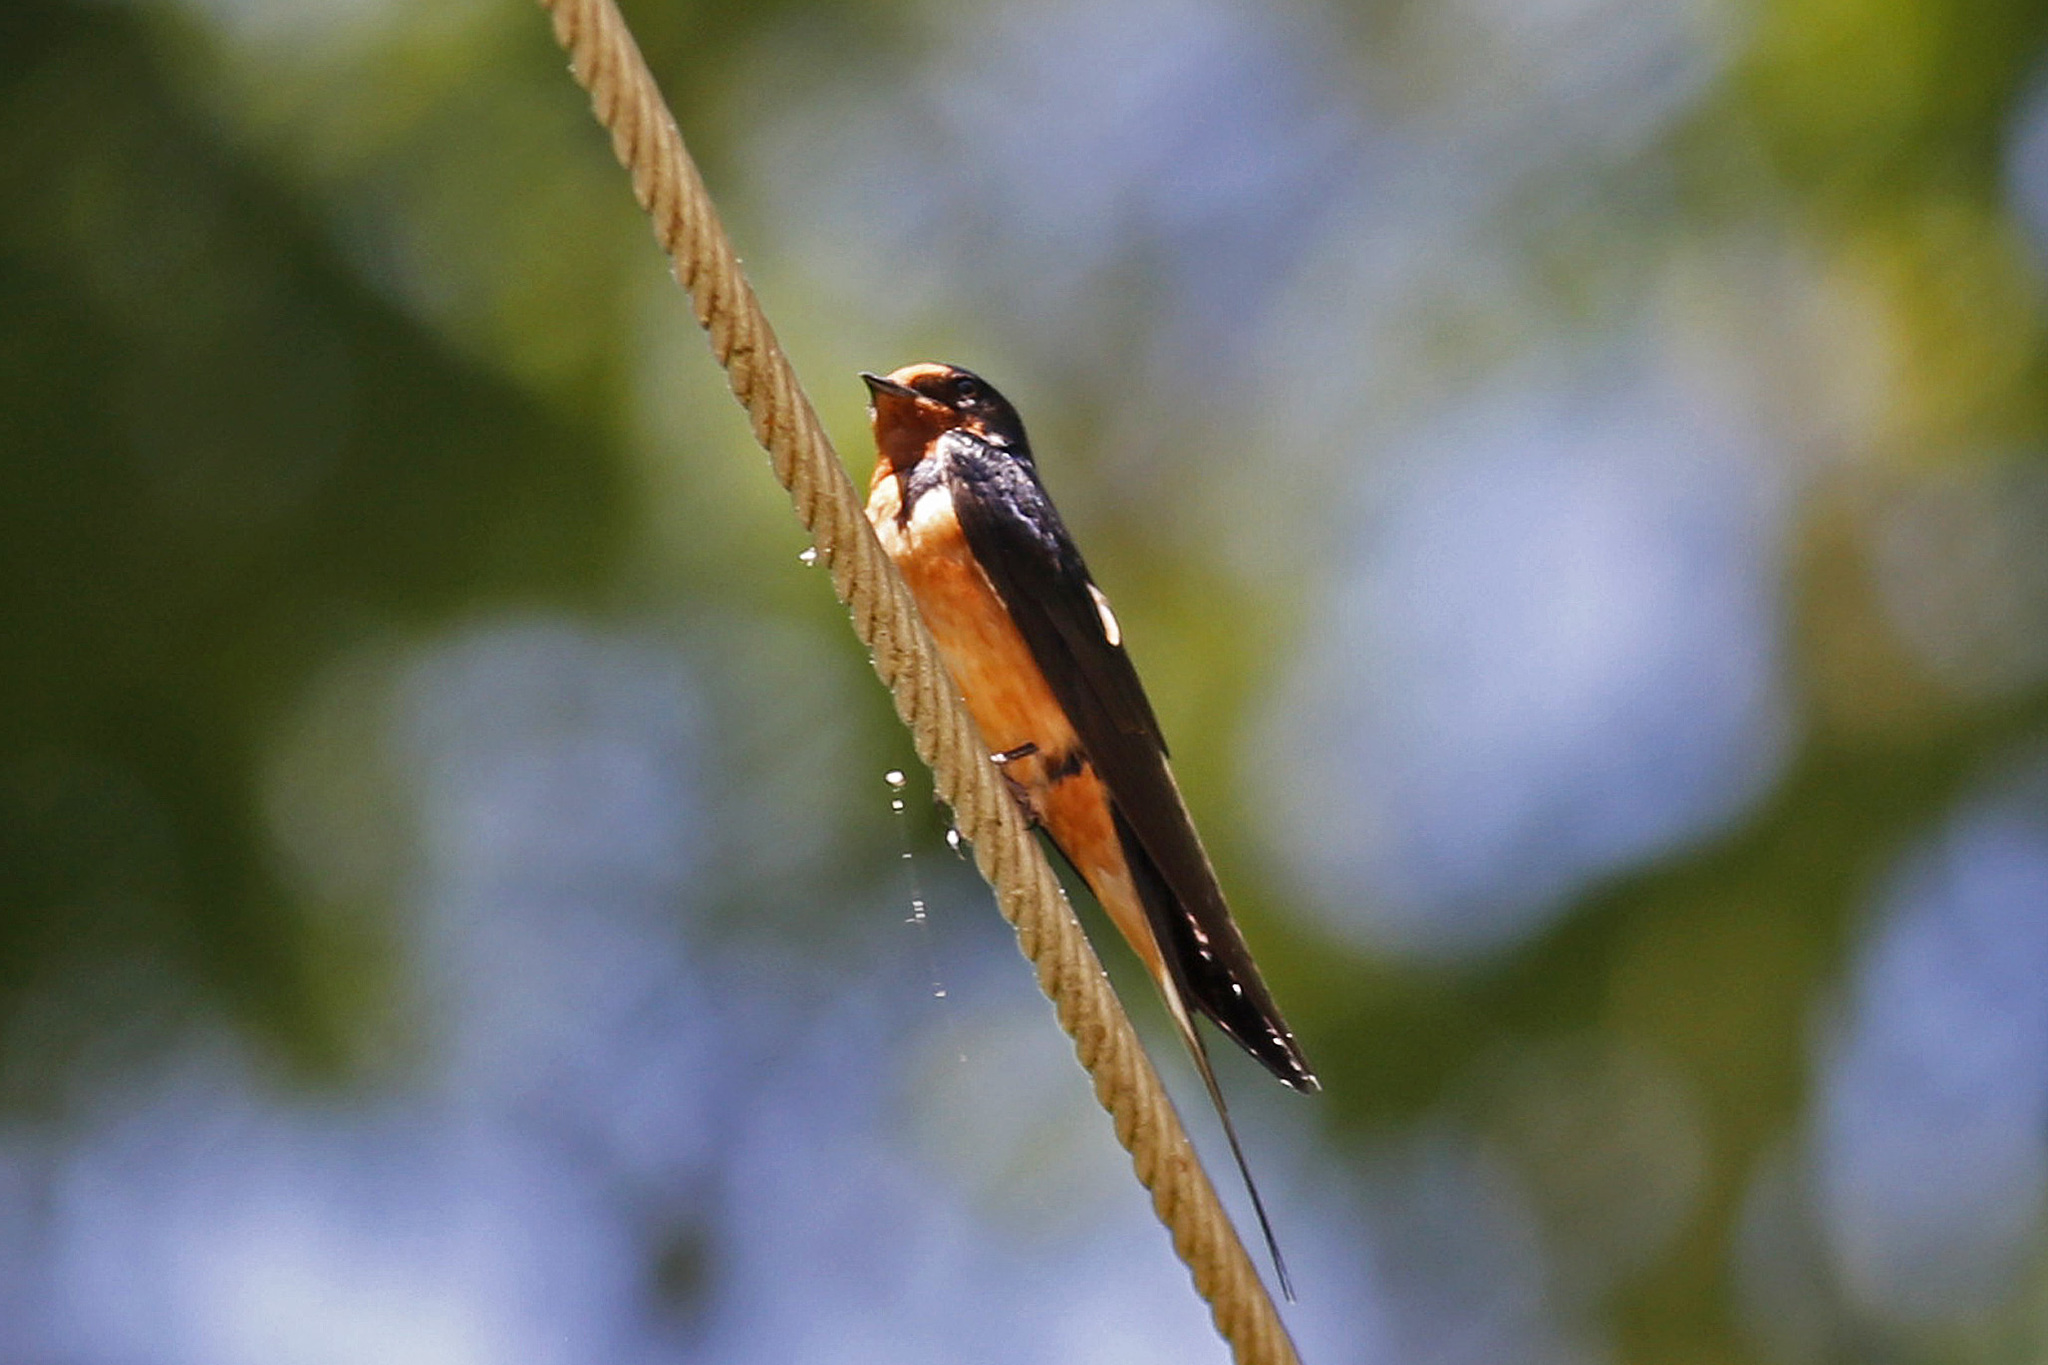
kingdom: Animalia
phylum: Chordata
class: Aves
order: Passeriformes
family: Hirundinidae
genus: Hirundo
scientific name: Hirundo rustica
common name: Barn swallow
